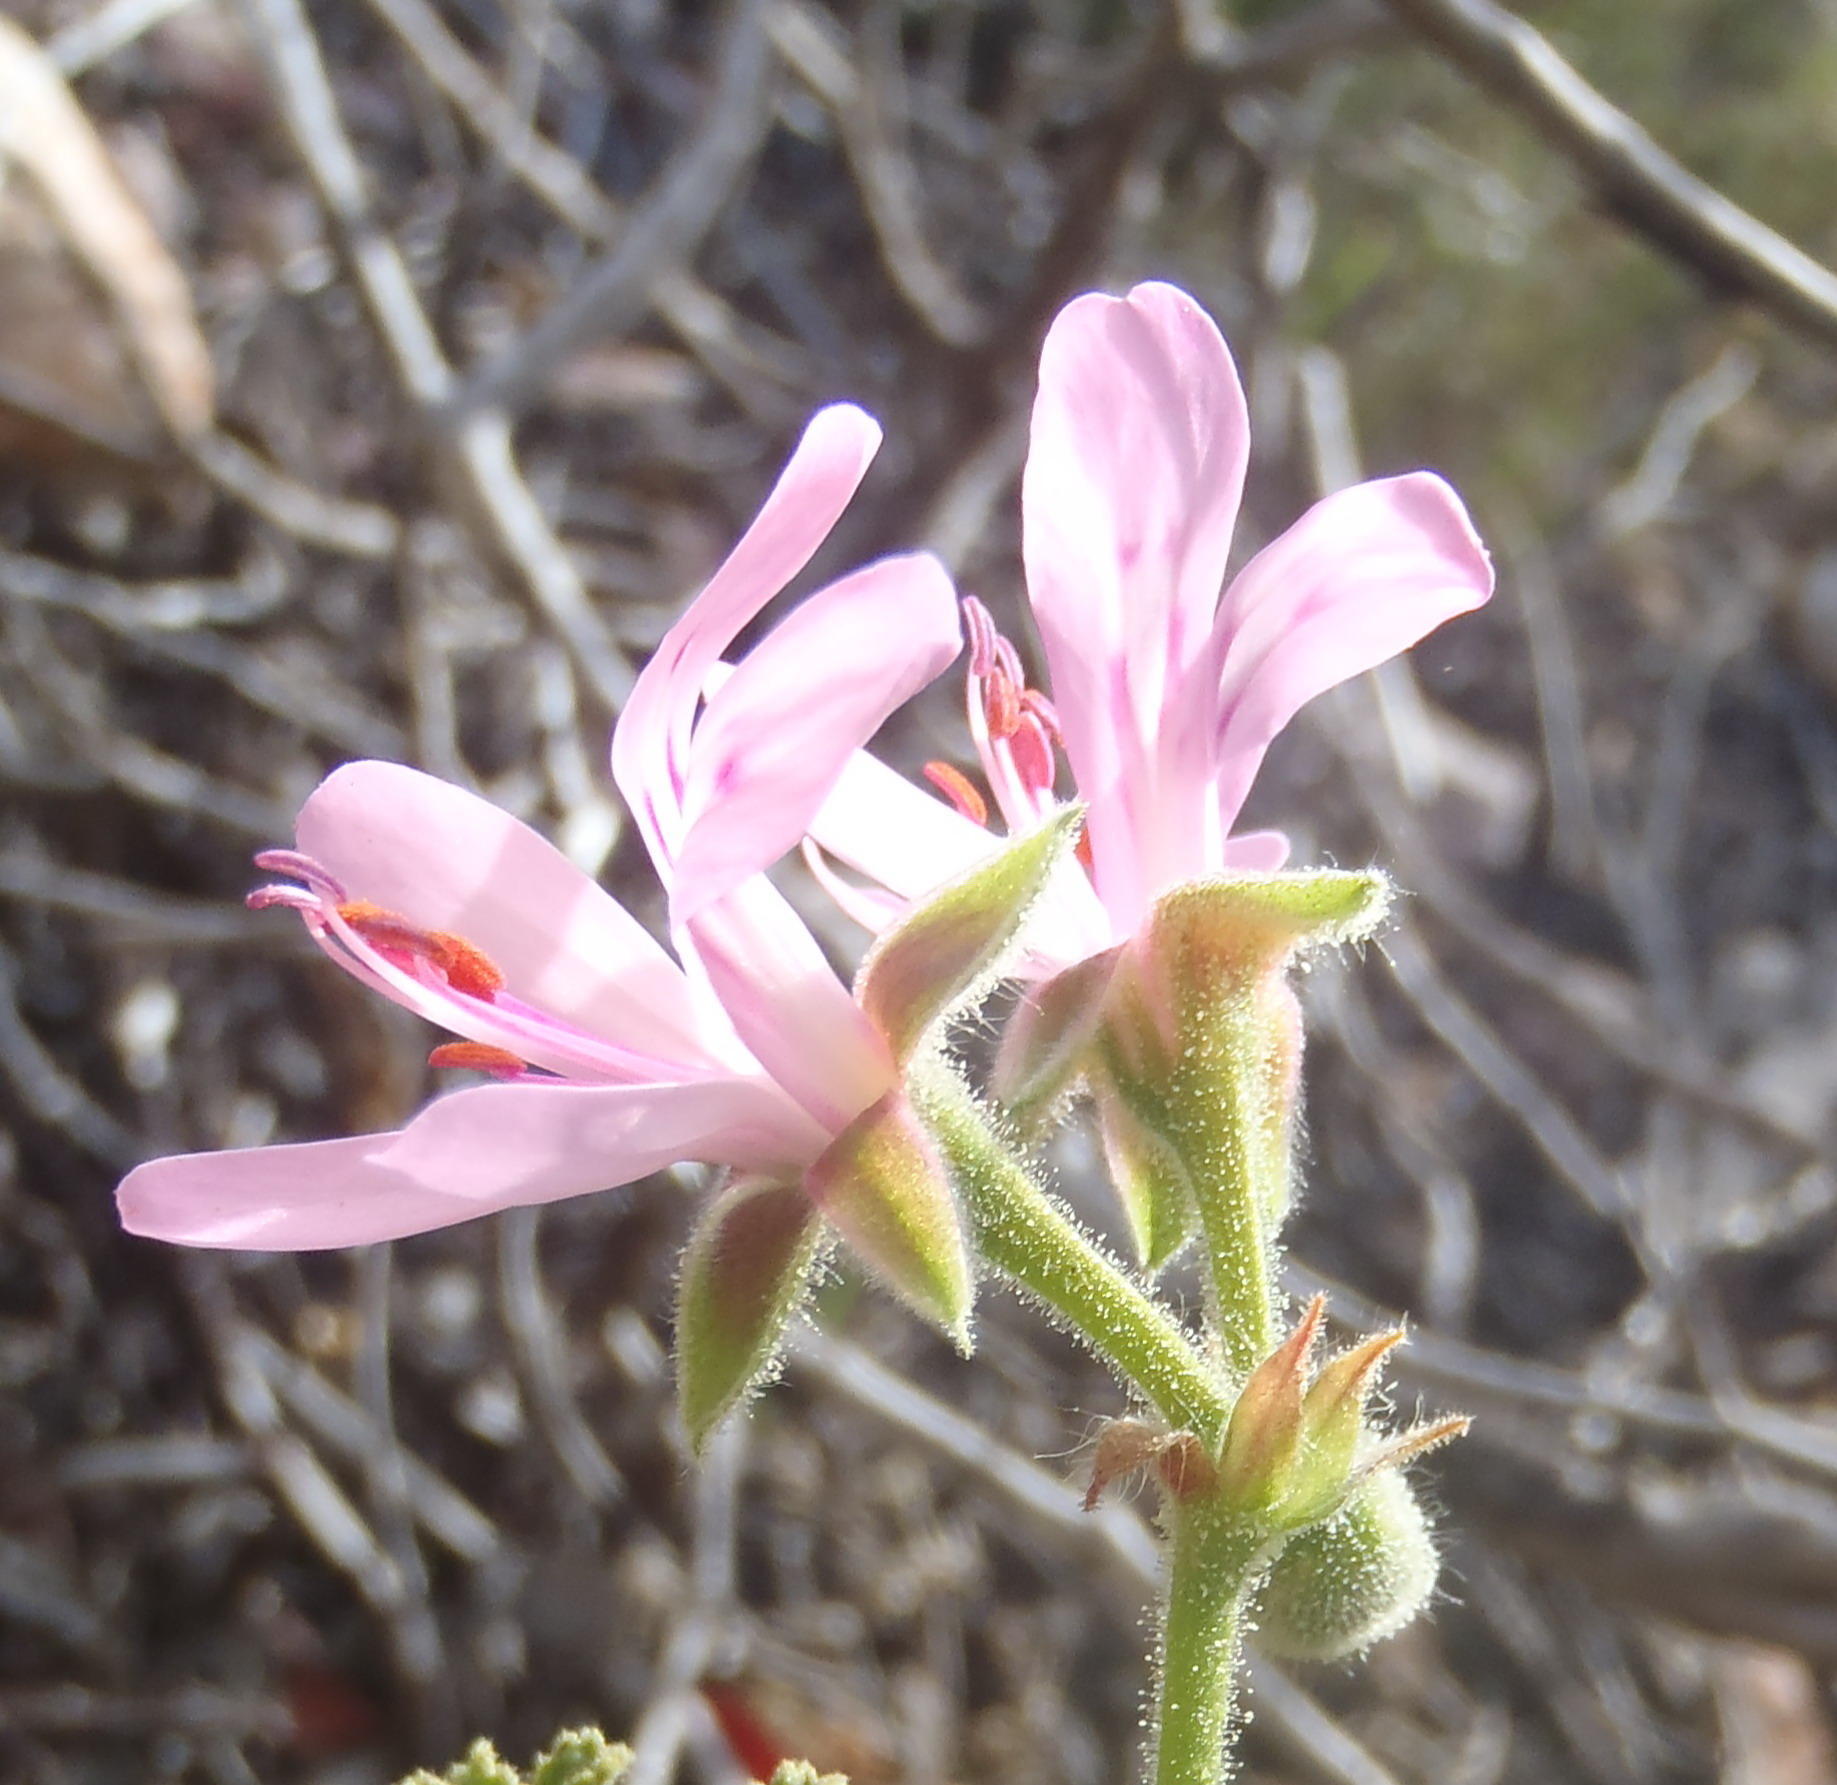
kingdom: Plantae
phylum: Tracheophyta
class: Magnoliopsida
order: Geraniales
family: Geraniaceae
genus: Pelargonium
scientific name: Pelargonium quercifolium
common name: Oakleaf geranium
